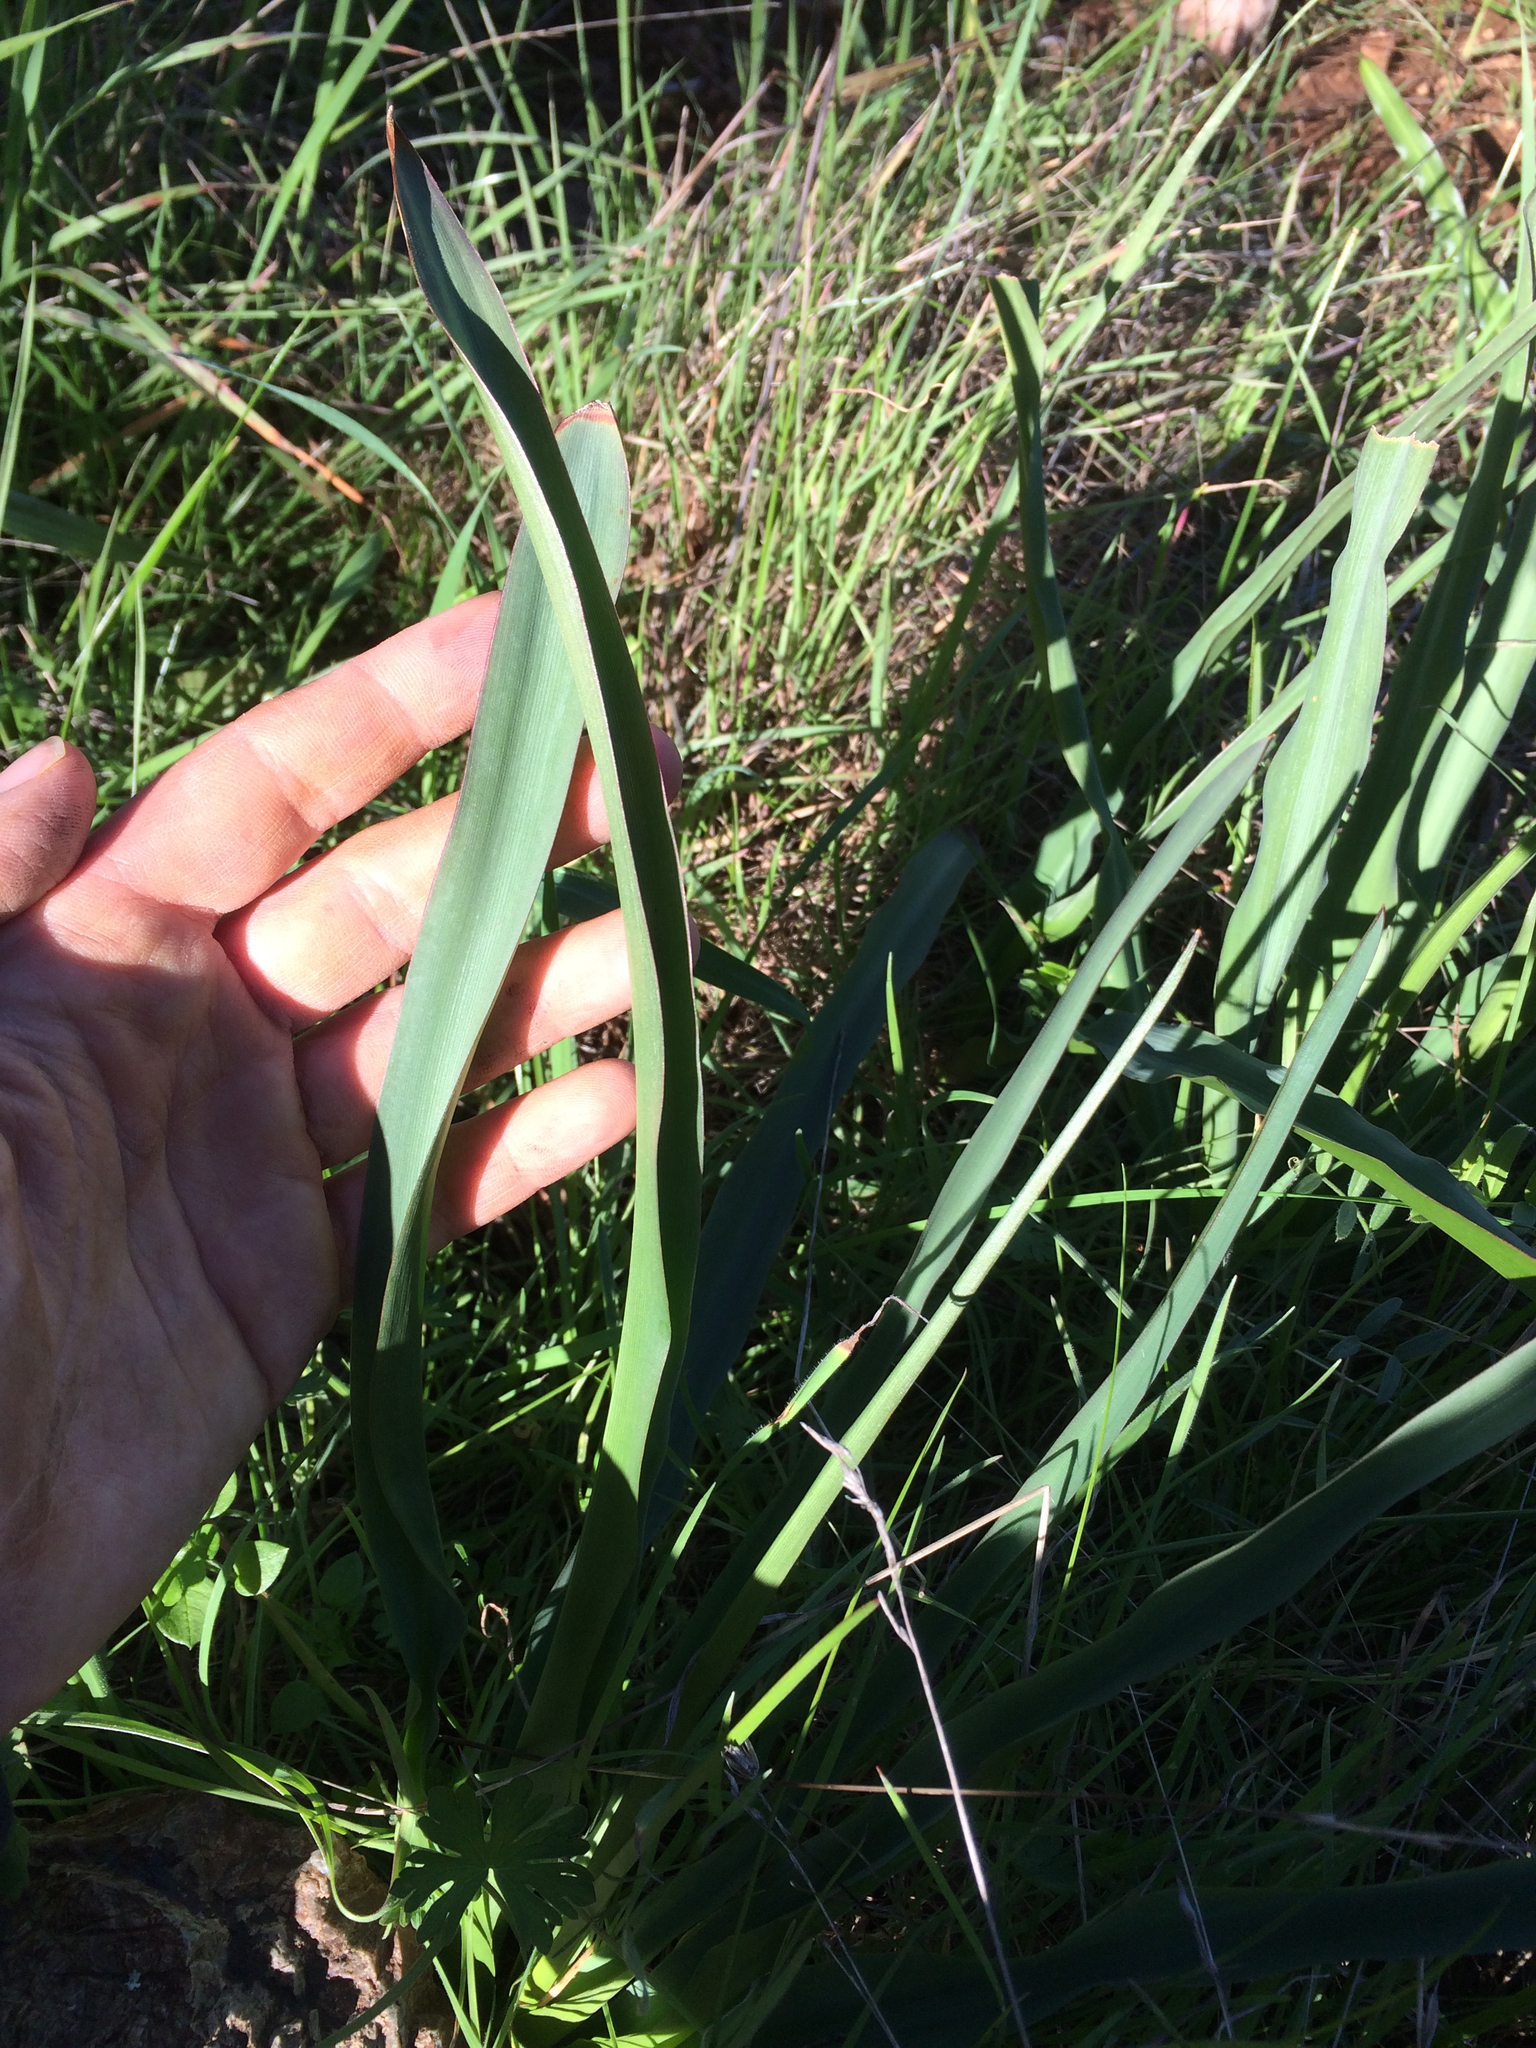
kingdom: Plantae
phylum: Tracheophyta
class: Liliopsida
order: Asparagales
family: Asparagaceae
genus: Chlorogalum
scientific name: Chlorogalum pomeridianum
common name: Amole
